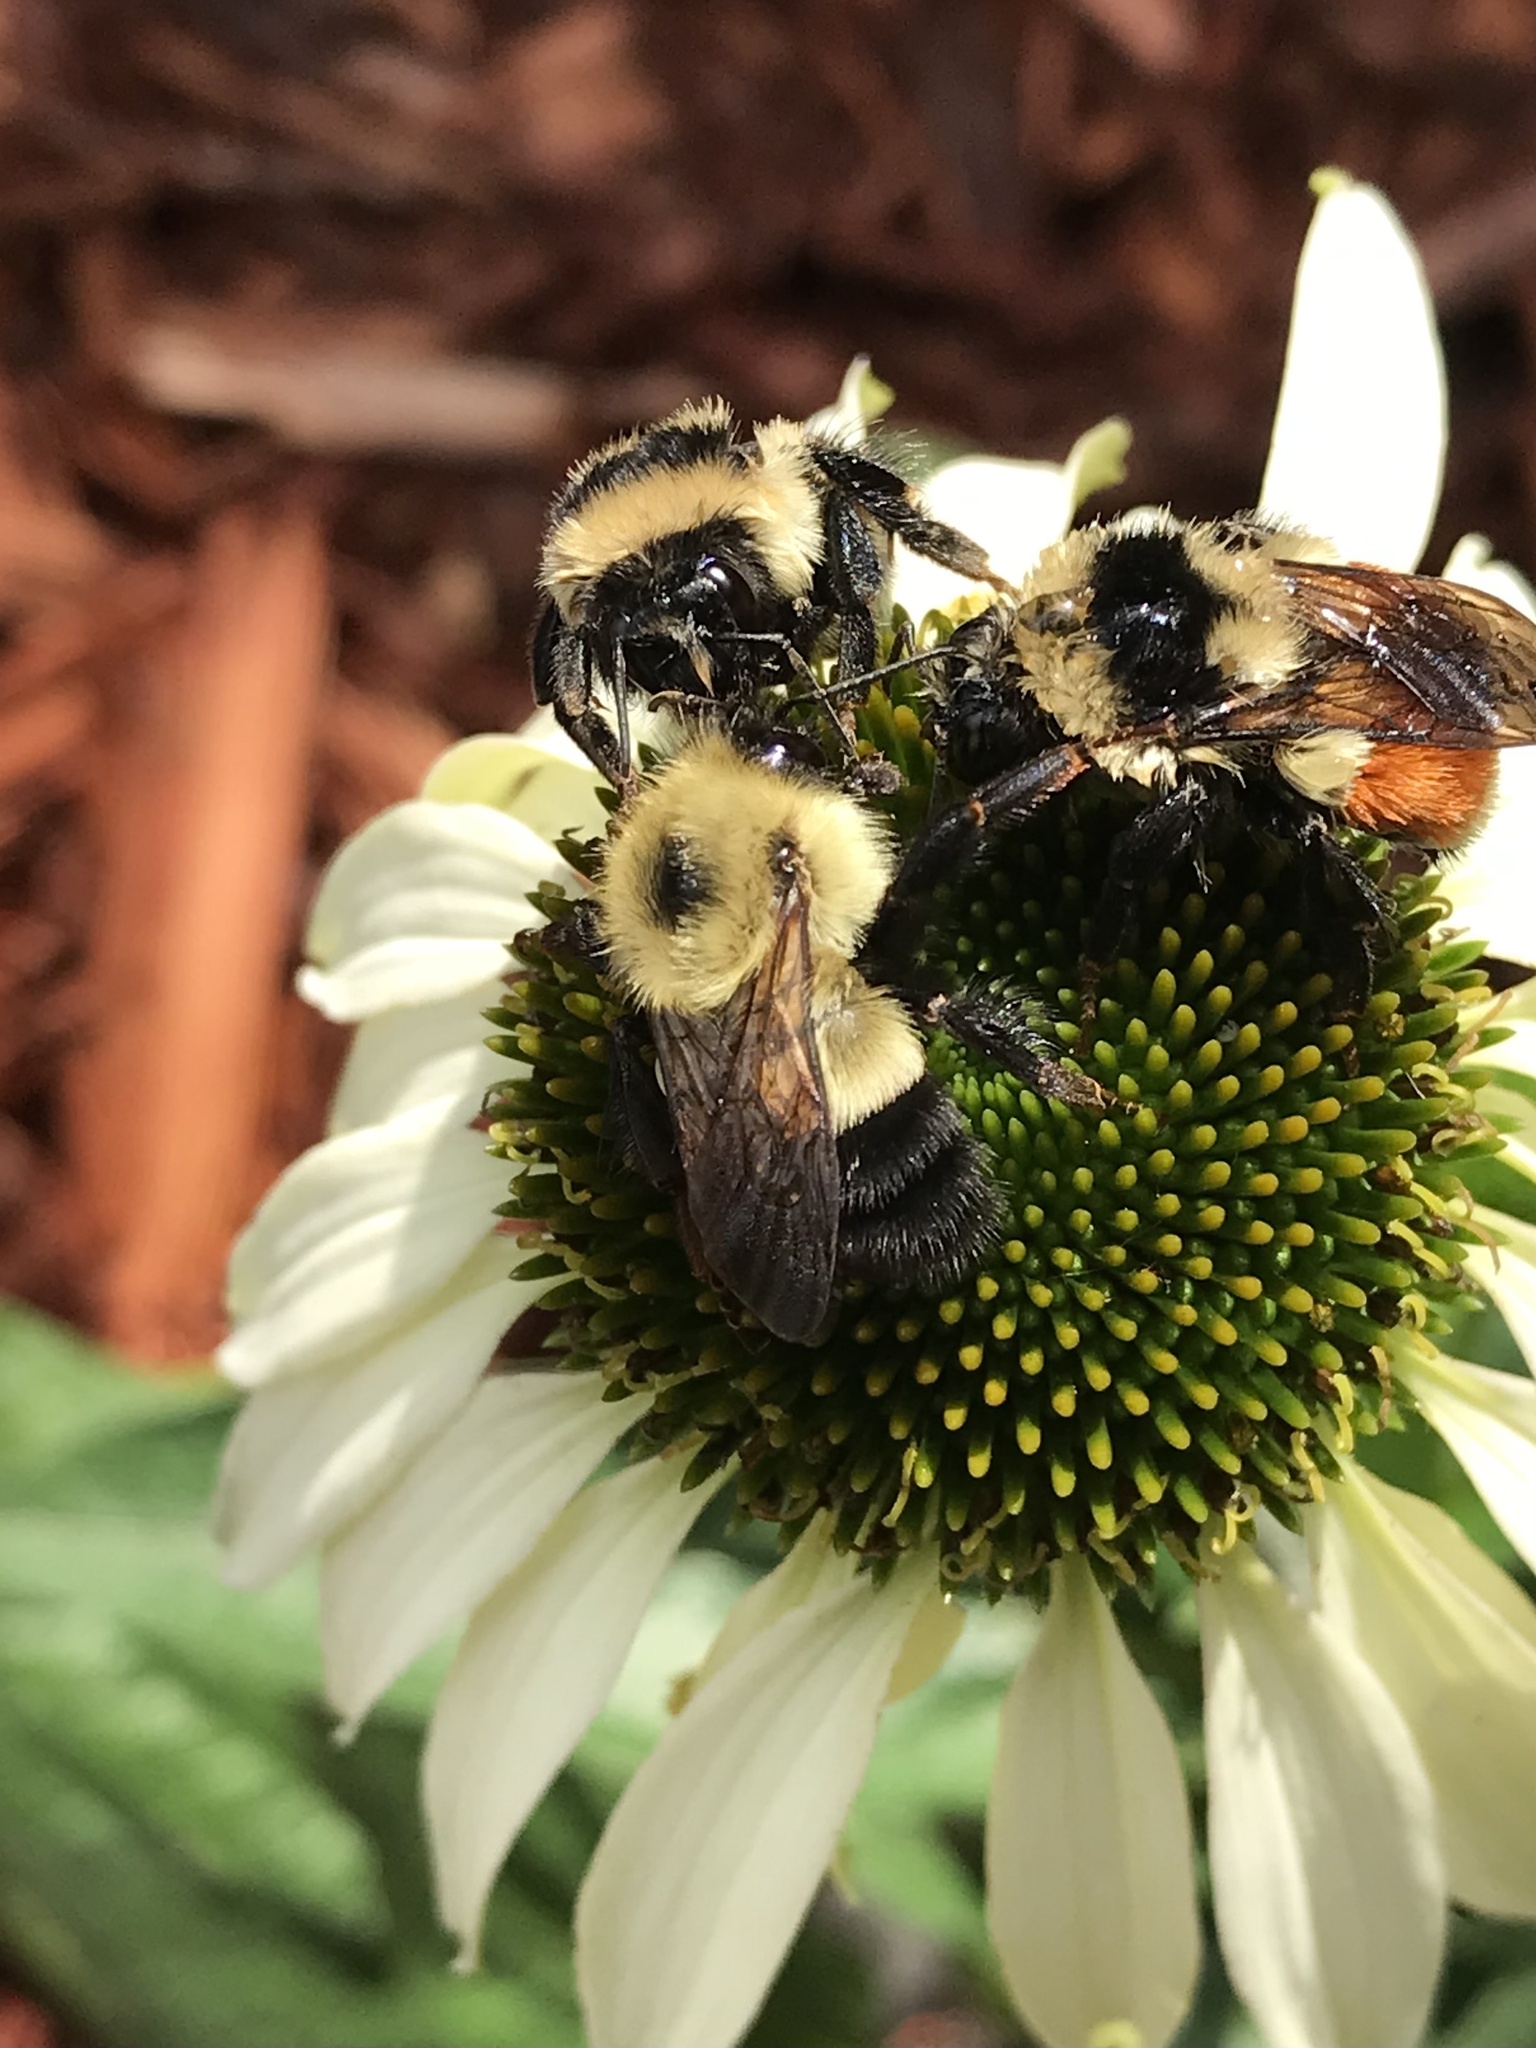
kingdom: Animalia
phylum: Arthropoda
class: Insecta
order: Hymenoptera
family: Apidae
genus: Bombus
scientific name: Bombus vagans
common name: Half-black bumble bee
